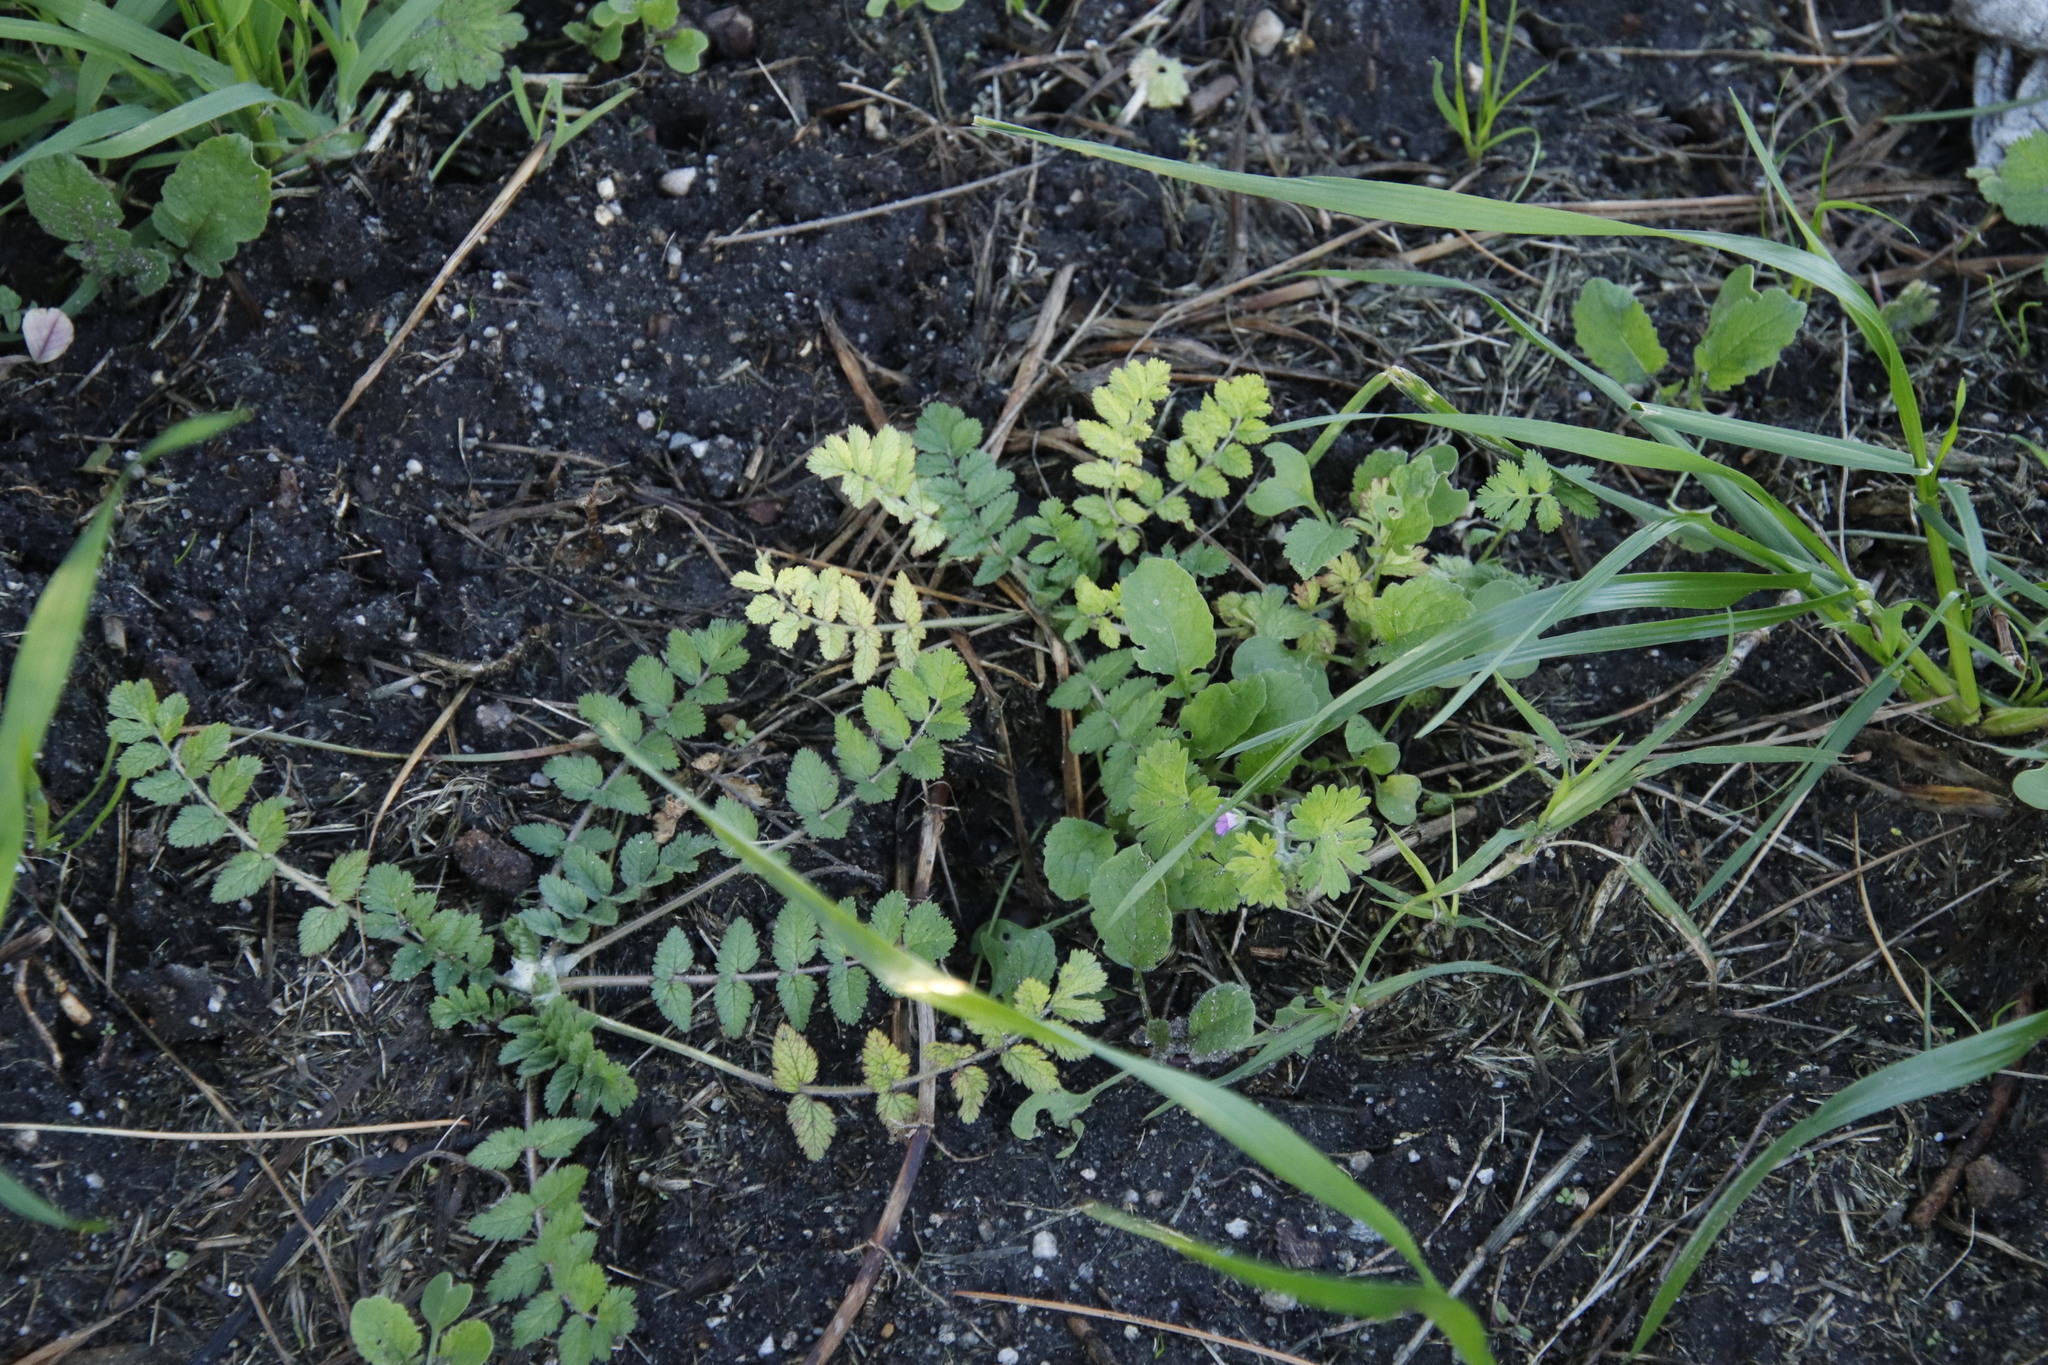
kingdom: Plantae
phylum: Tracheophyta
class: Magnoliopsida
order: Geraniales
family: Geraniaceae
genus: Erodium
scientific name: Erodium moschatum
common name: Musk stork's-bill
